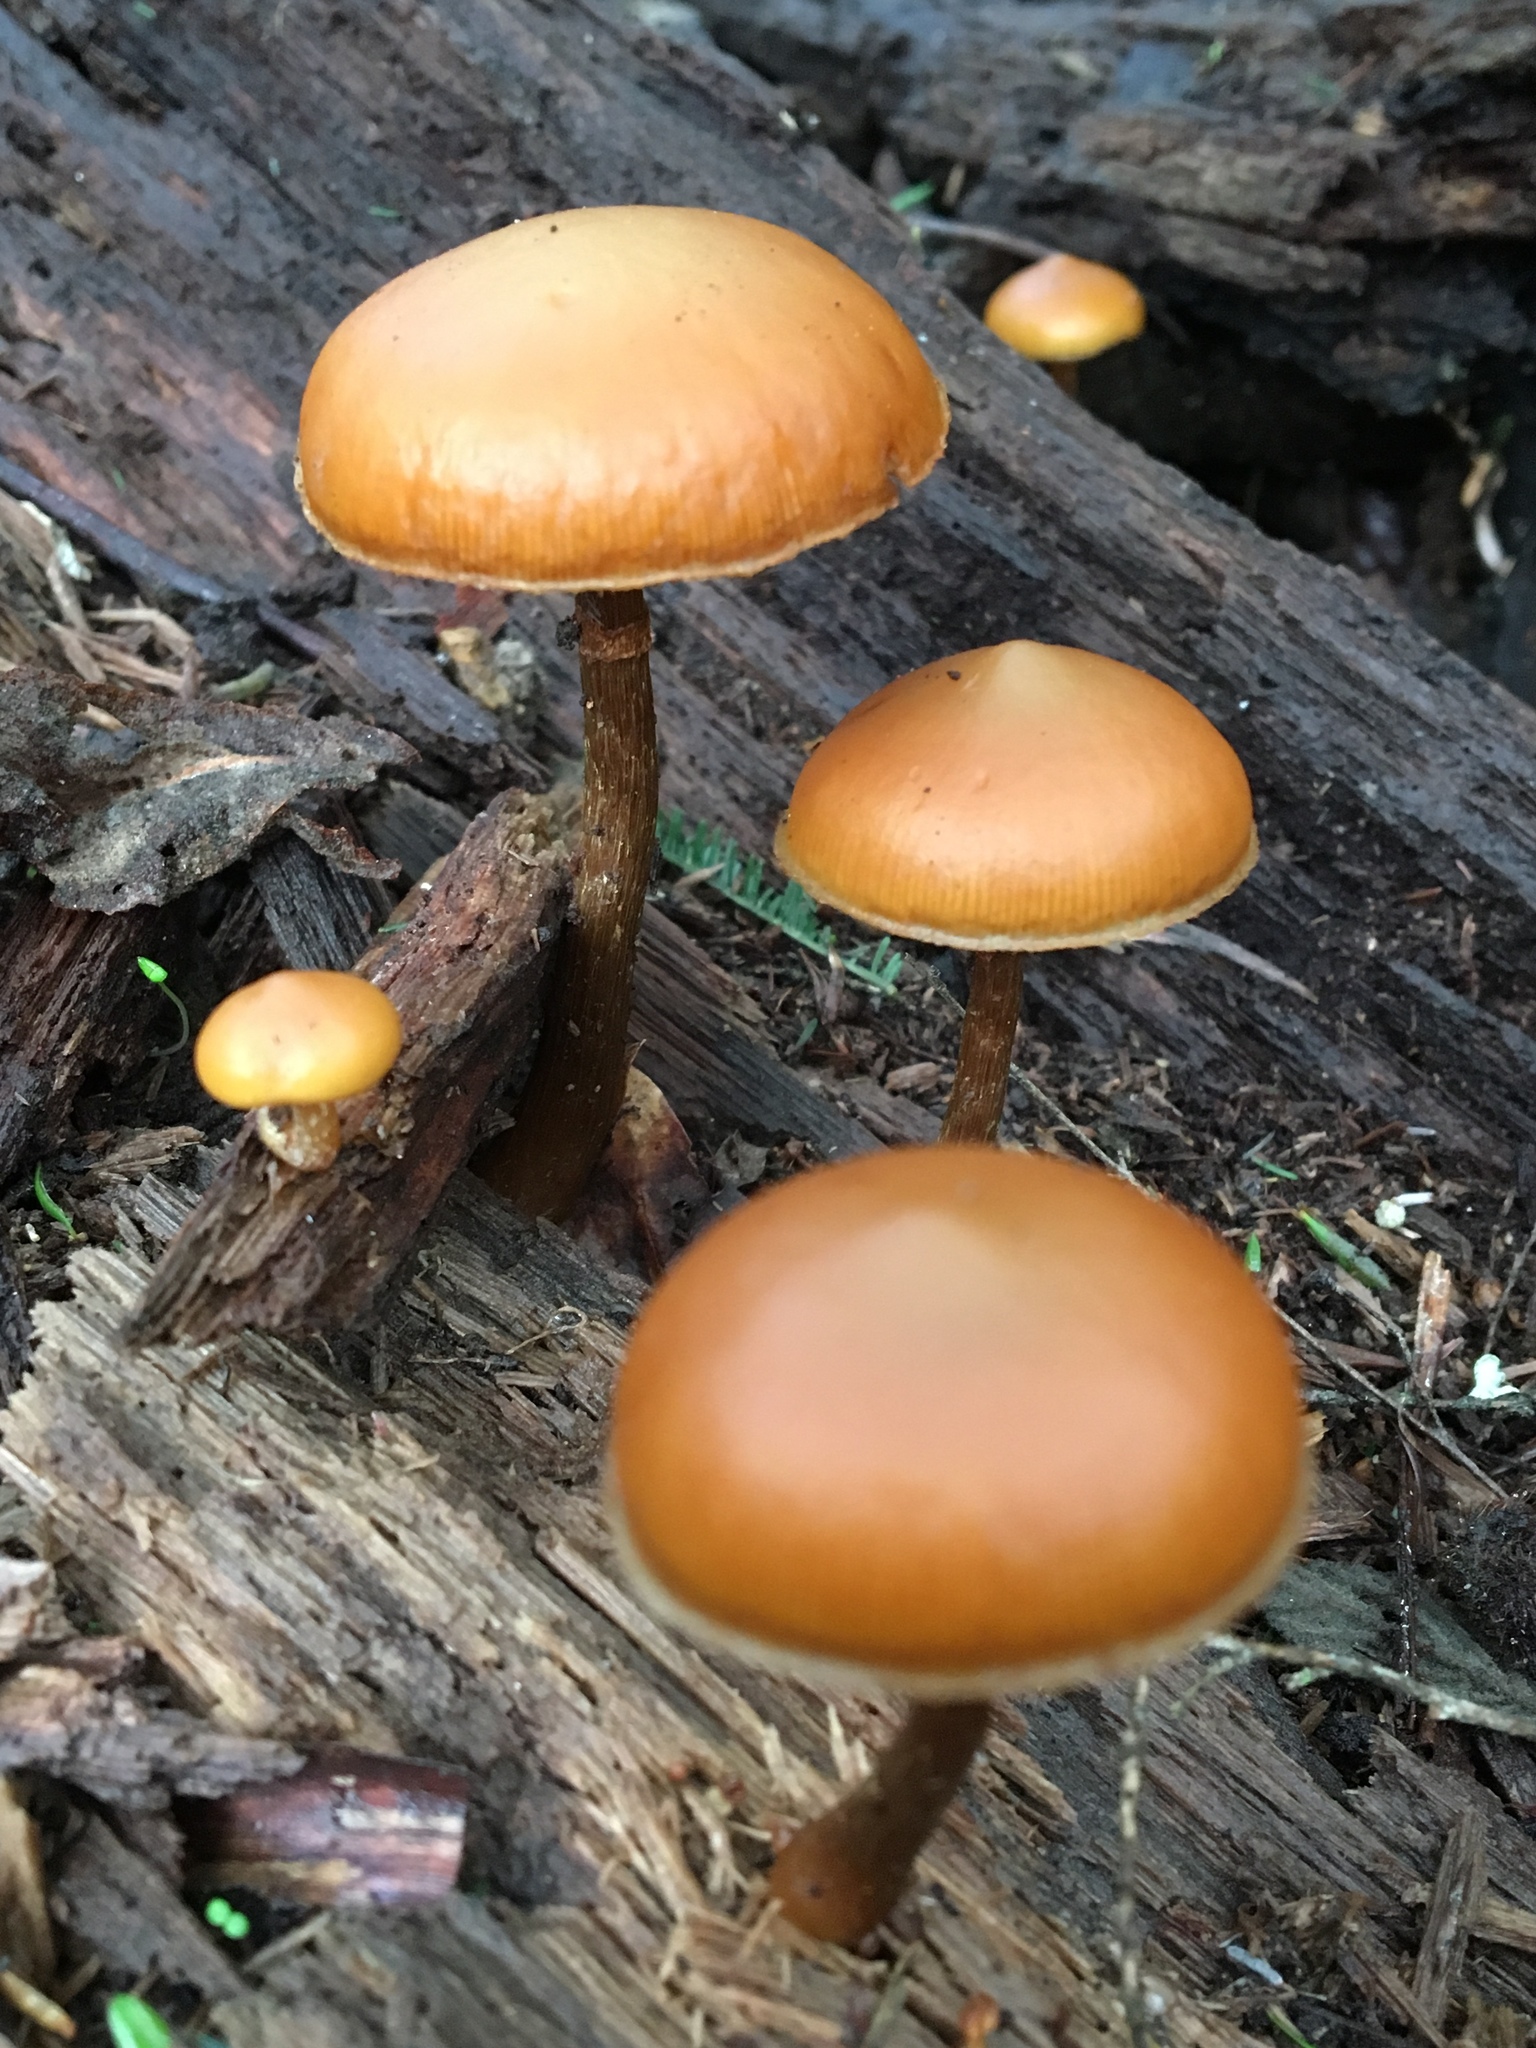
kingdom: Fungi
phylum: Basidiomycota
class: Agaricomycetes
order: Agaricales
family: Hymenogastraceae
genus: Galerina
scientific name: Galerina patagonica
